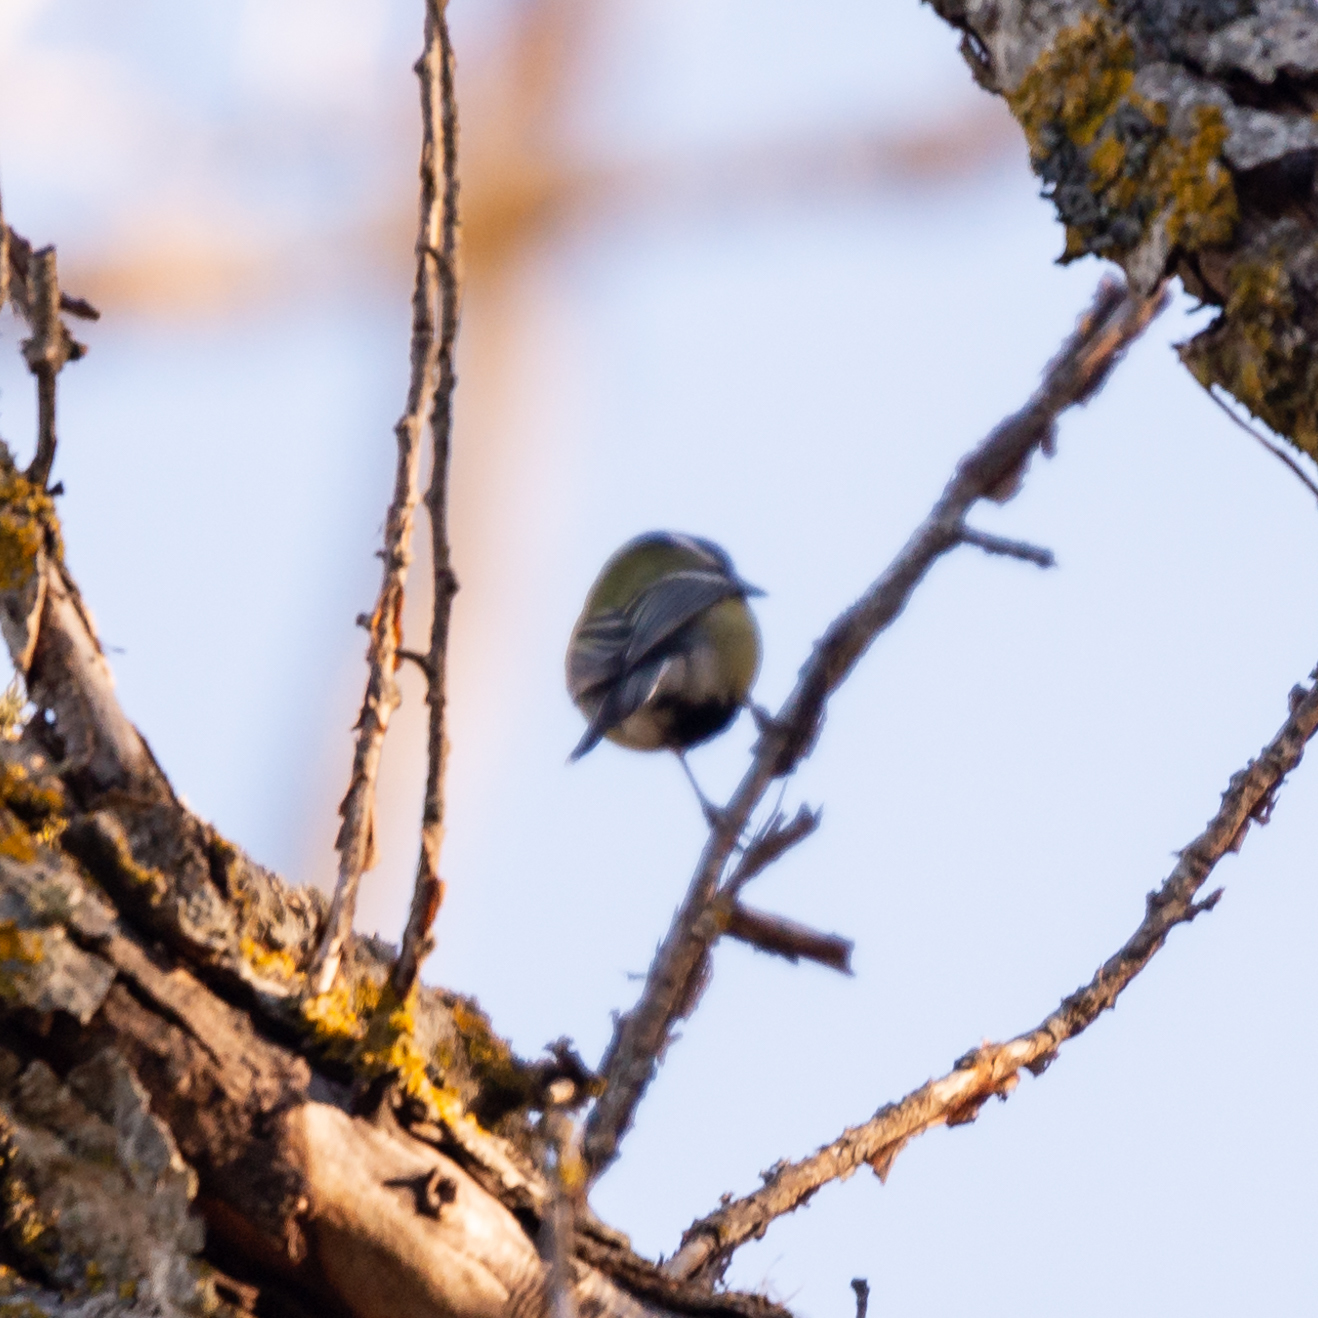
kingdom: Animalia
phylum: Chordata
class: Aves
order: Passeriformes
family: Paridae
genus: Cyanistes
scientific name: Cyanistes caeruleus
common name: Eurasian blue tit
